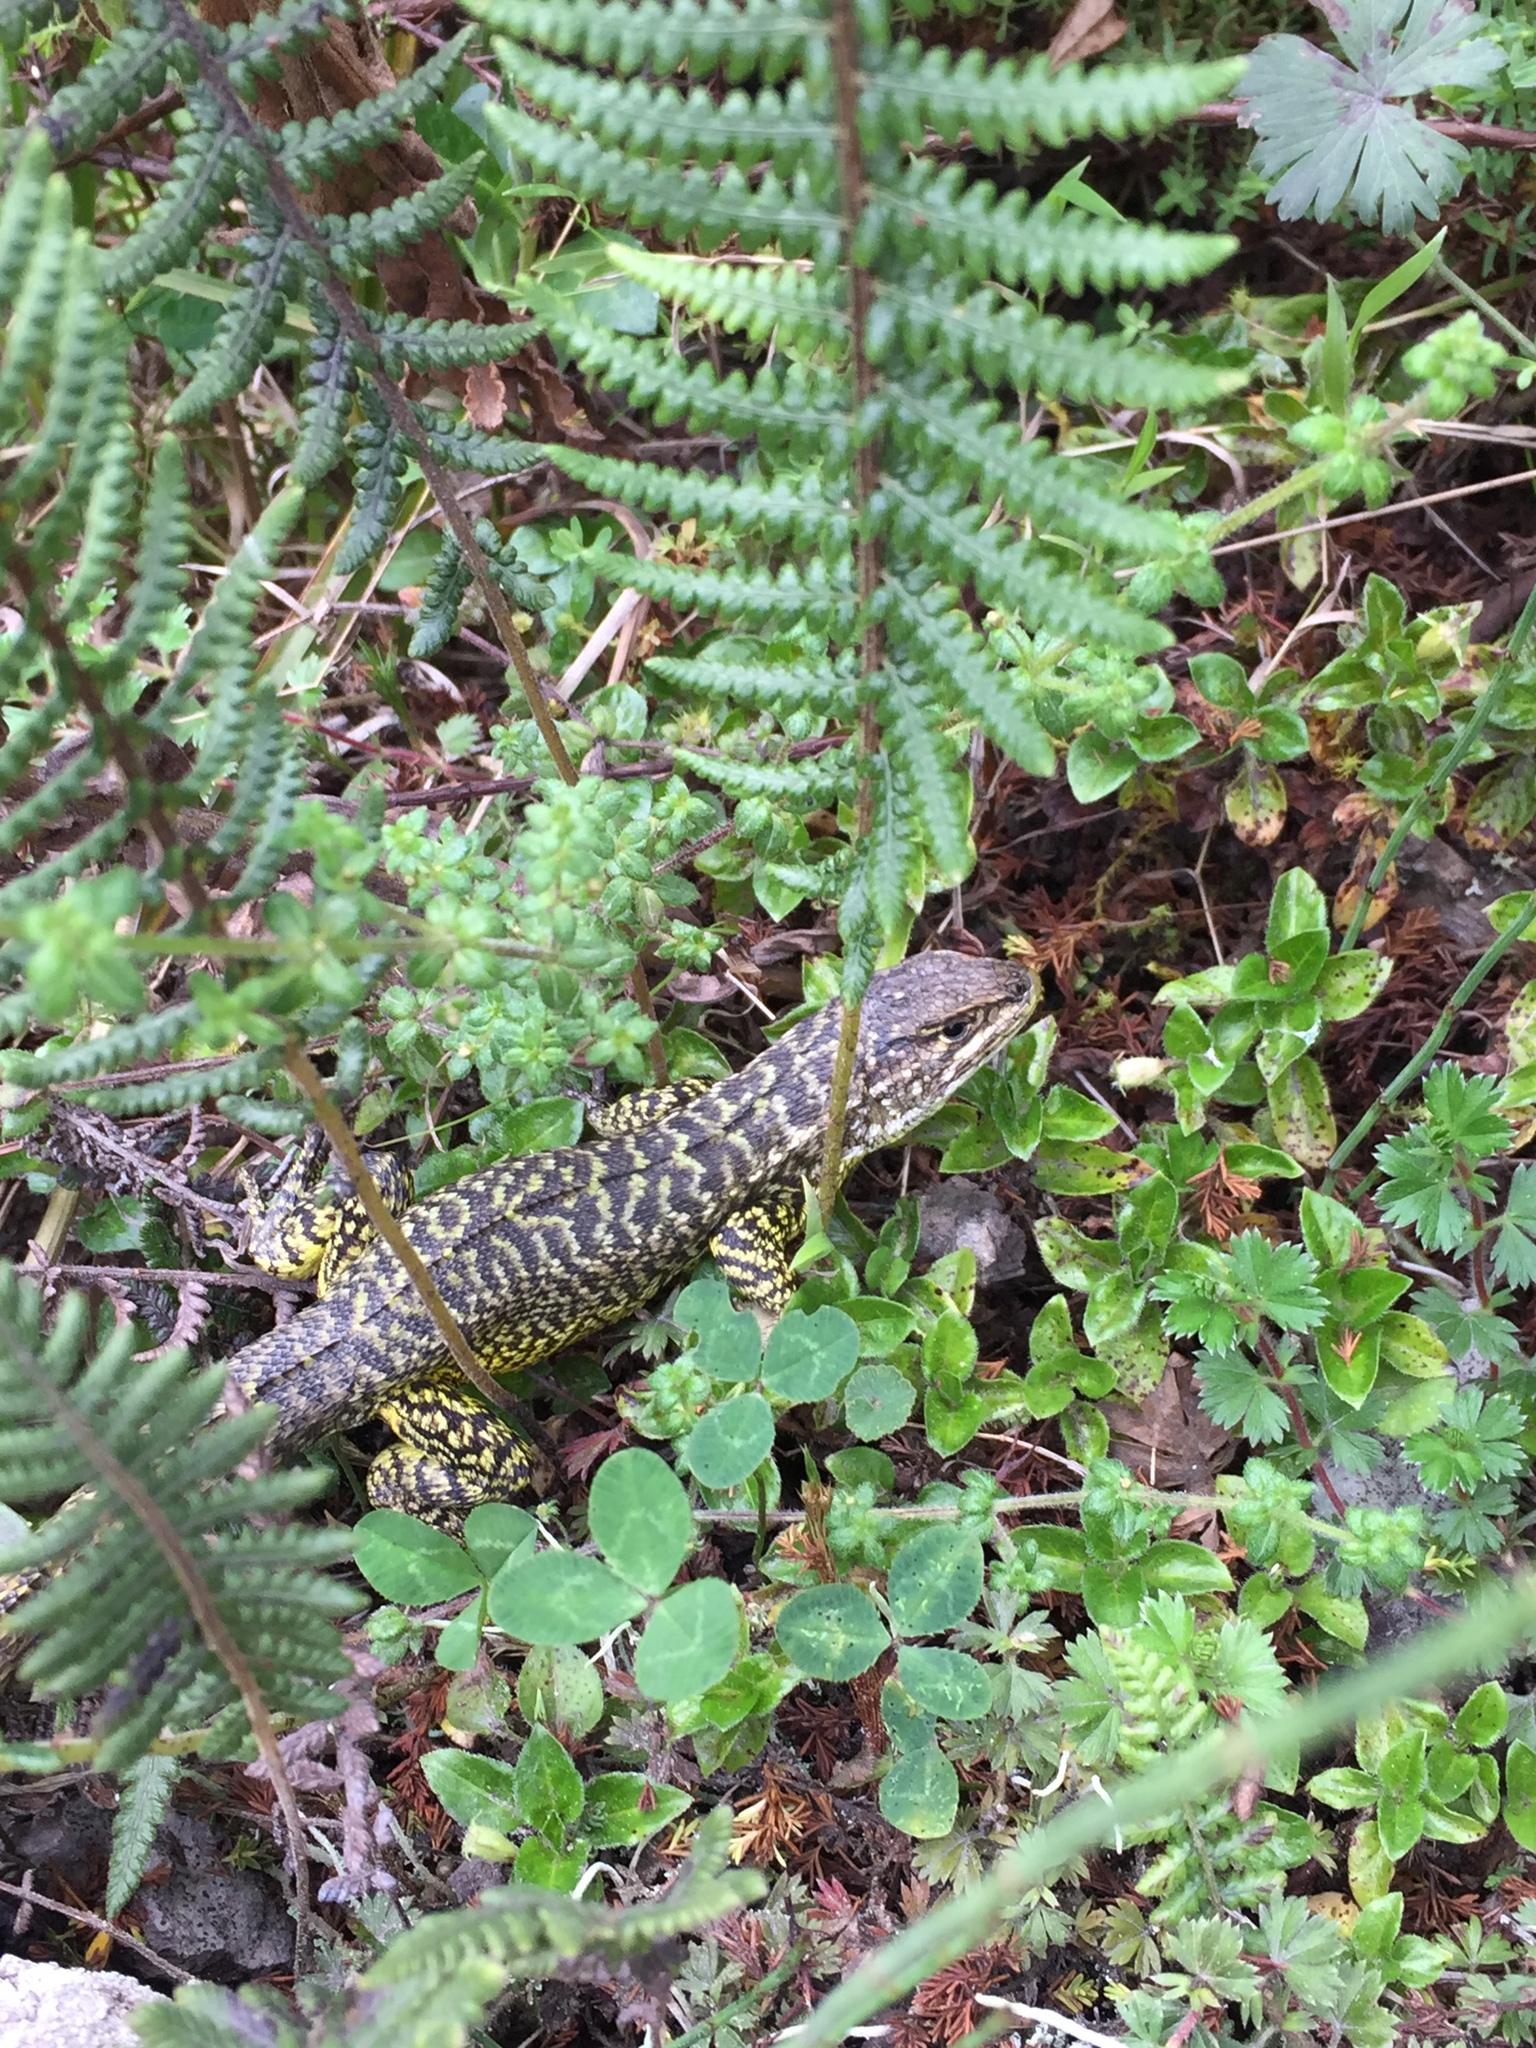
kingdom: Animalia
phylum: Chordata
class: Squamata
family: Tropiduridae
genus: Stenocercus
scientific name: Stenocercus guentheri
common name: Günther's whorltail iguana
